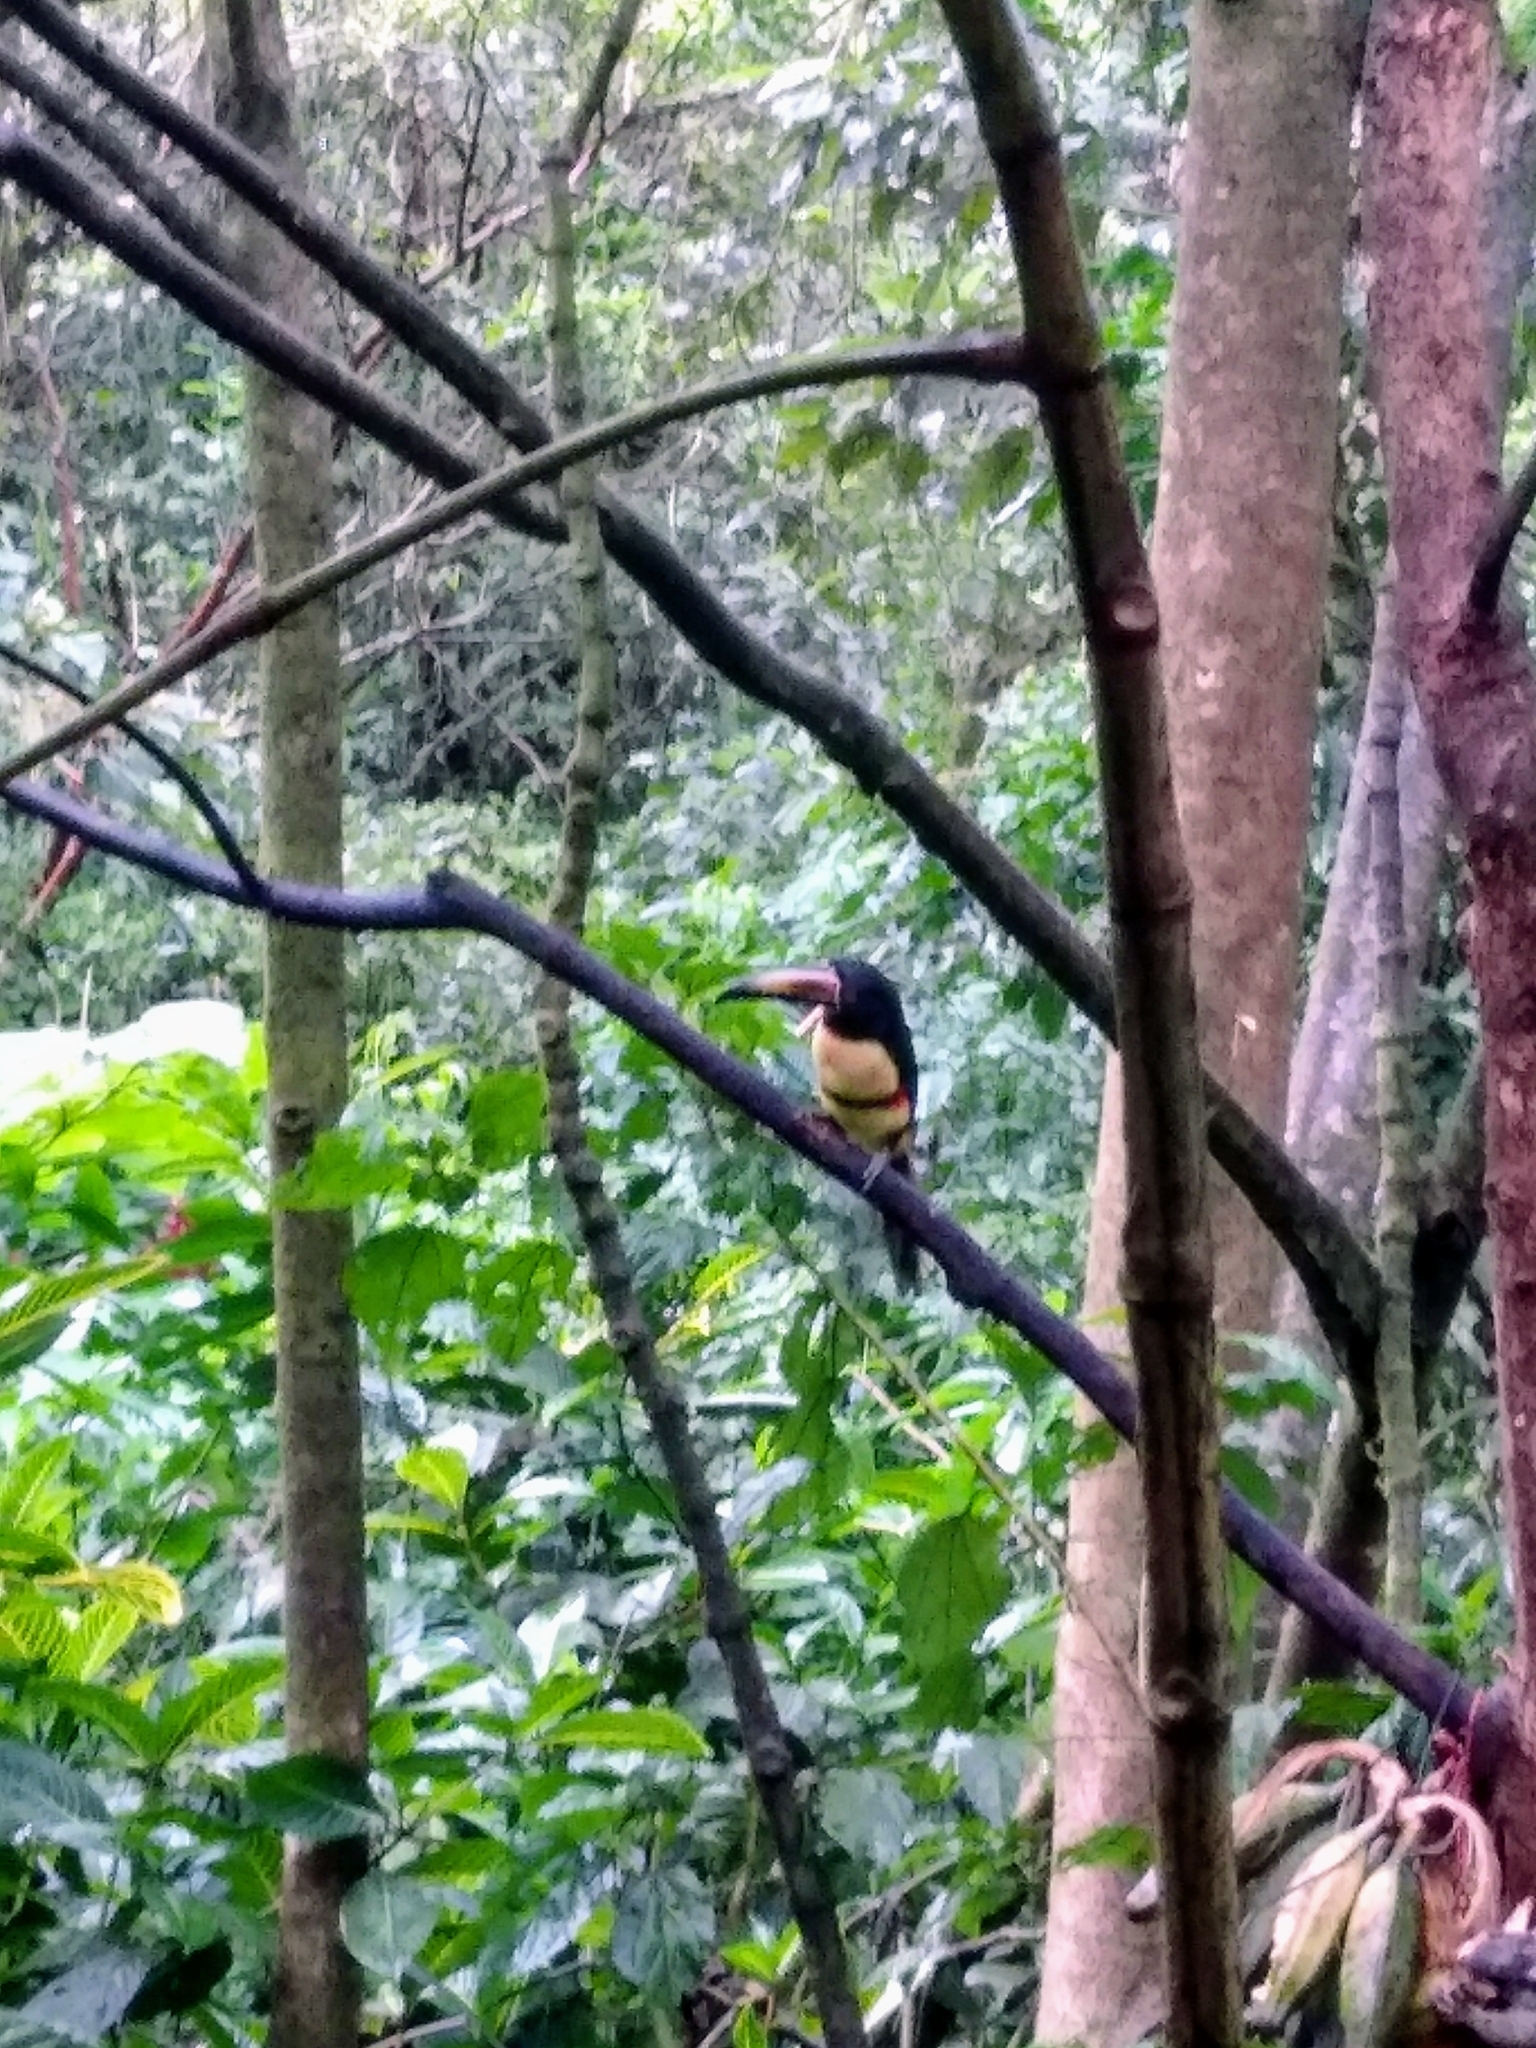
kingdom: Animalia
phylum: Chordata
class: Aves
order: Piciformes
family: Ramphastidae
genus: Pteroglossus
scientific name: Pteroglossus torquatus
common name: Collared aracari
